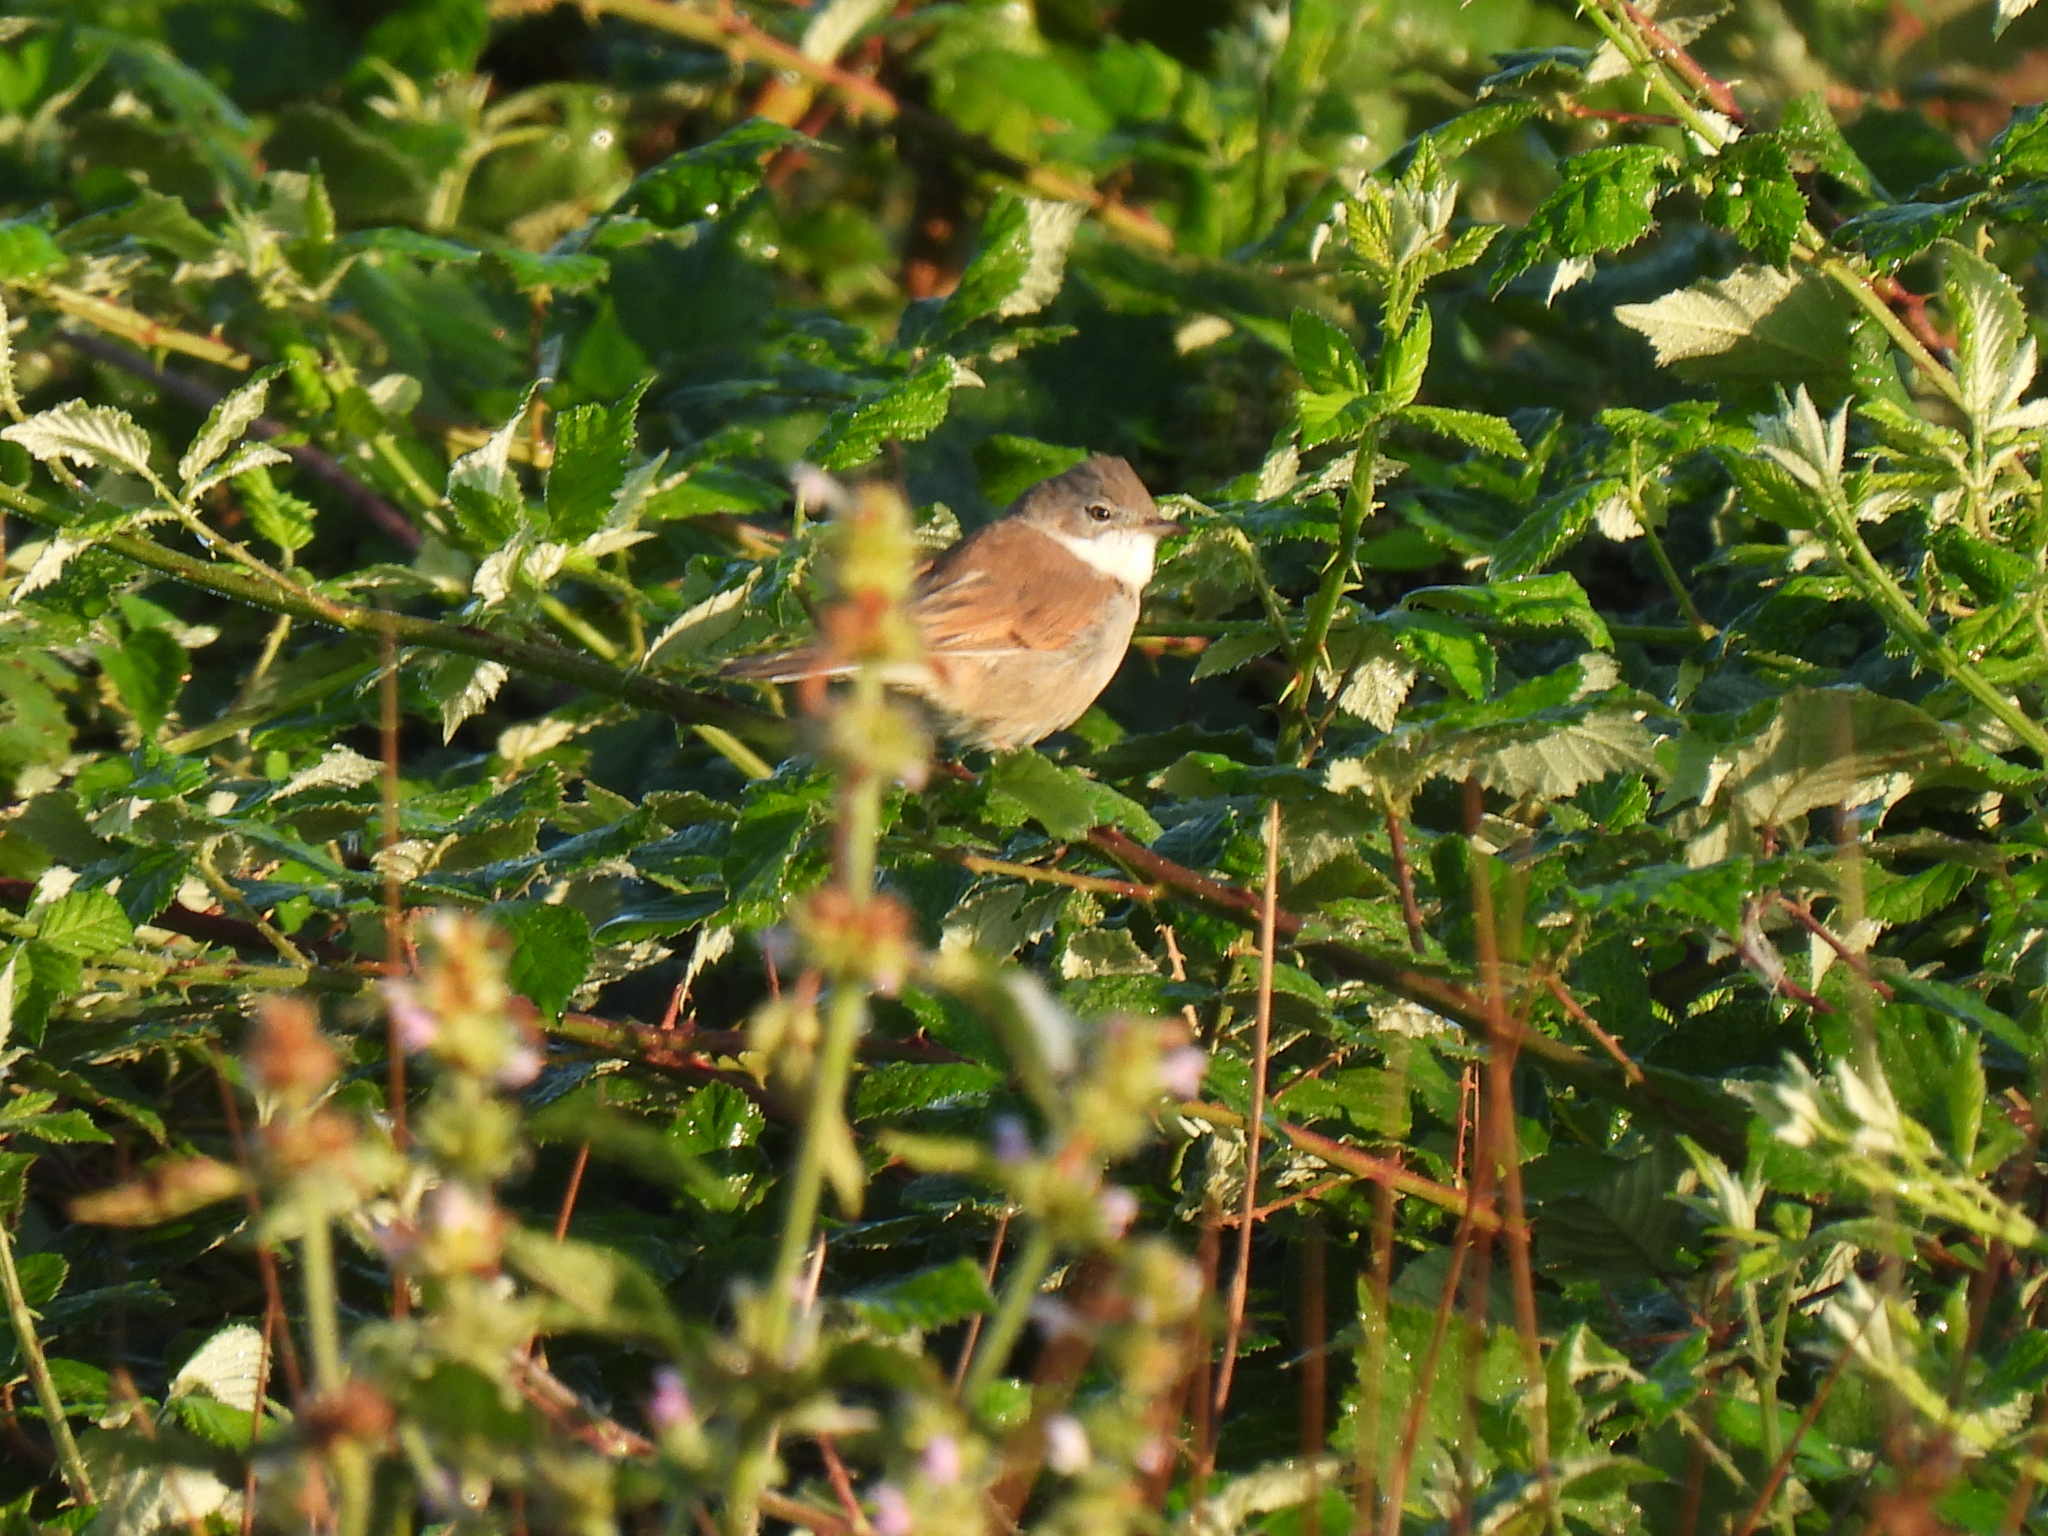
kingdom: Animalia
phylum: Chordata
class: Aves
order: Passeriformes
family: Sylviidae
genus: Sylvia
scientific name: Sylvia communis
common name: Common whitethroat
